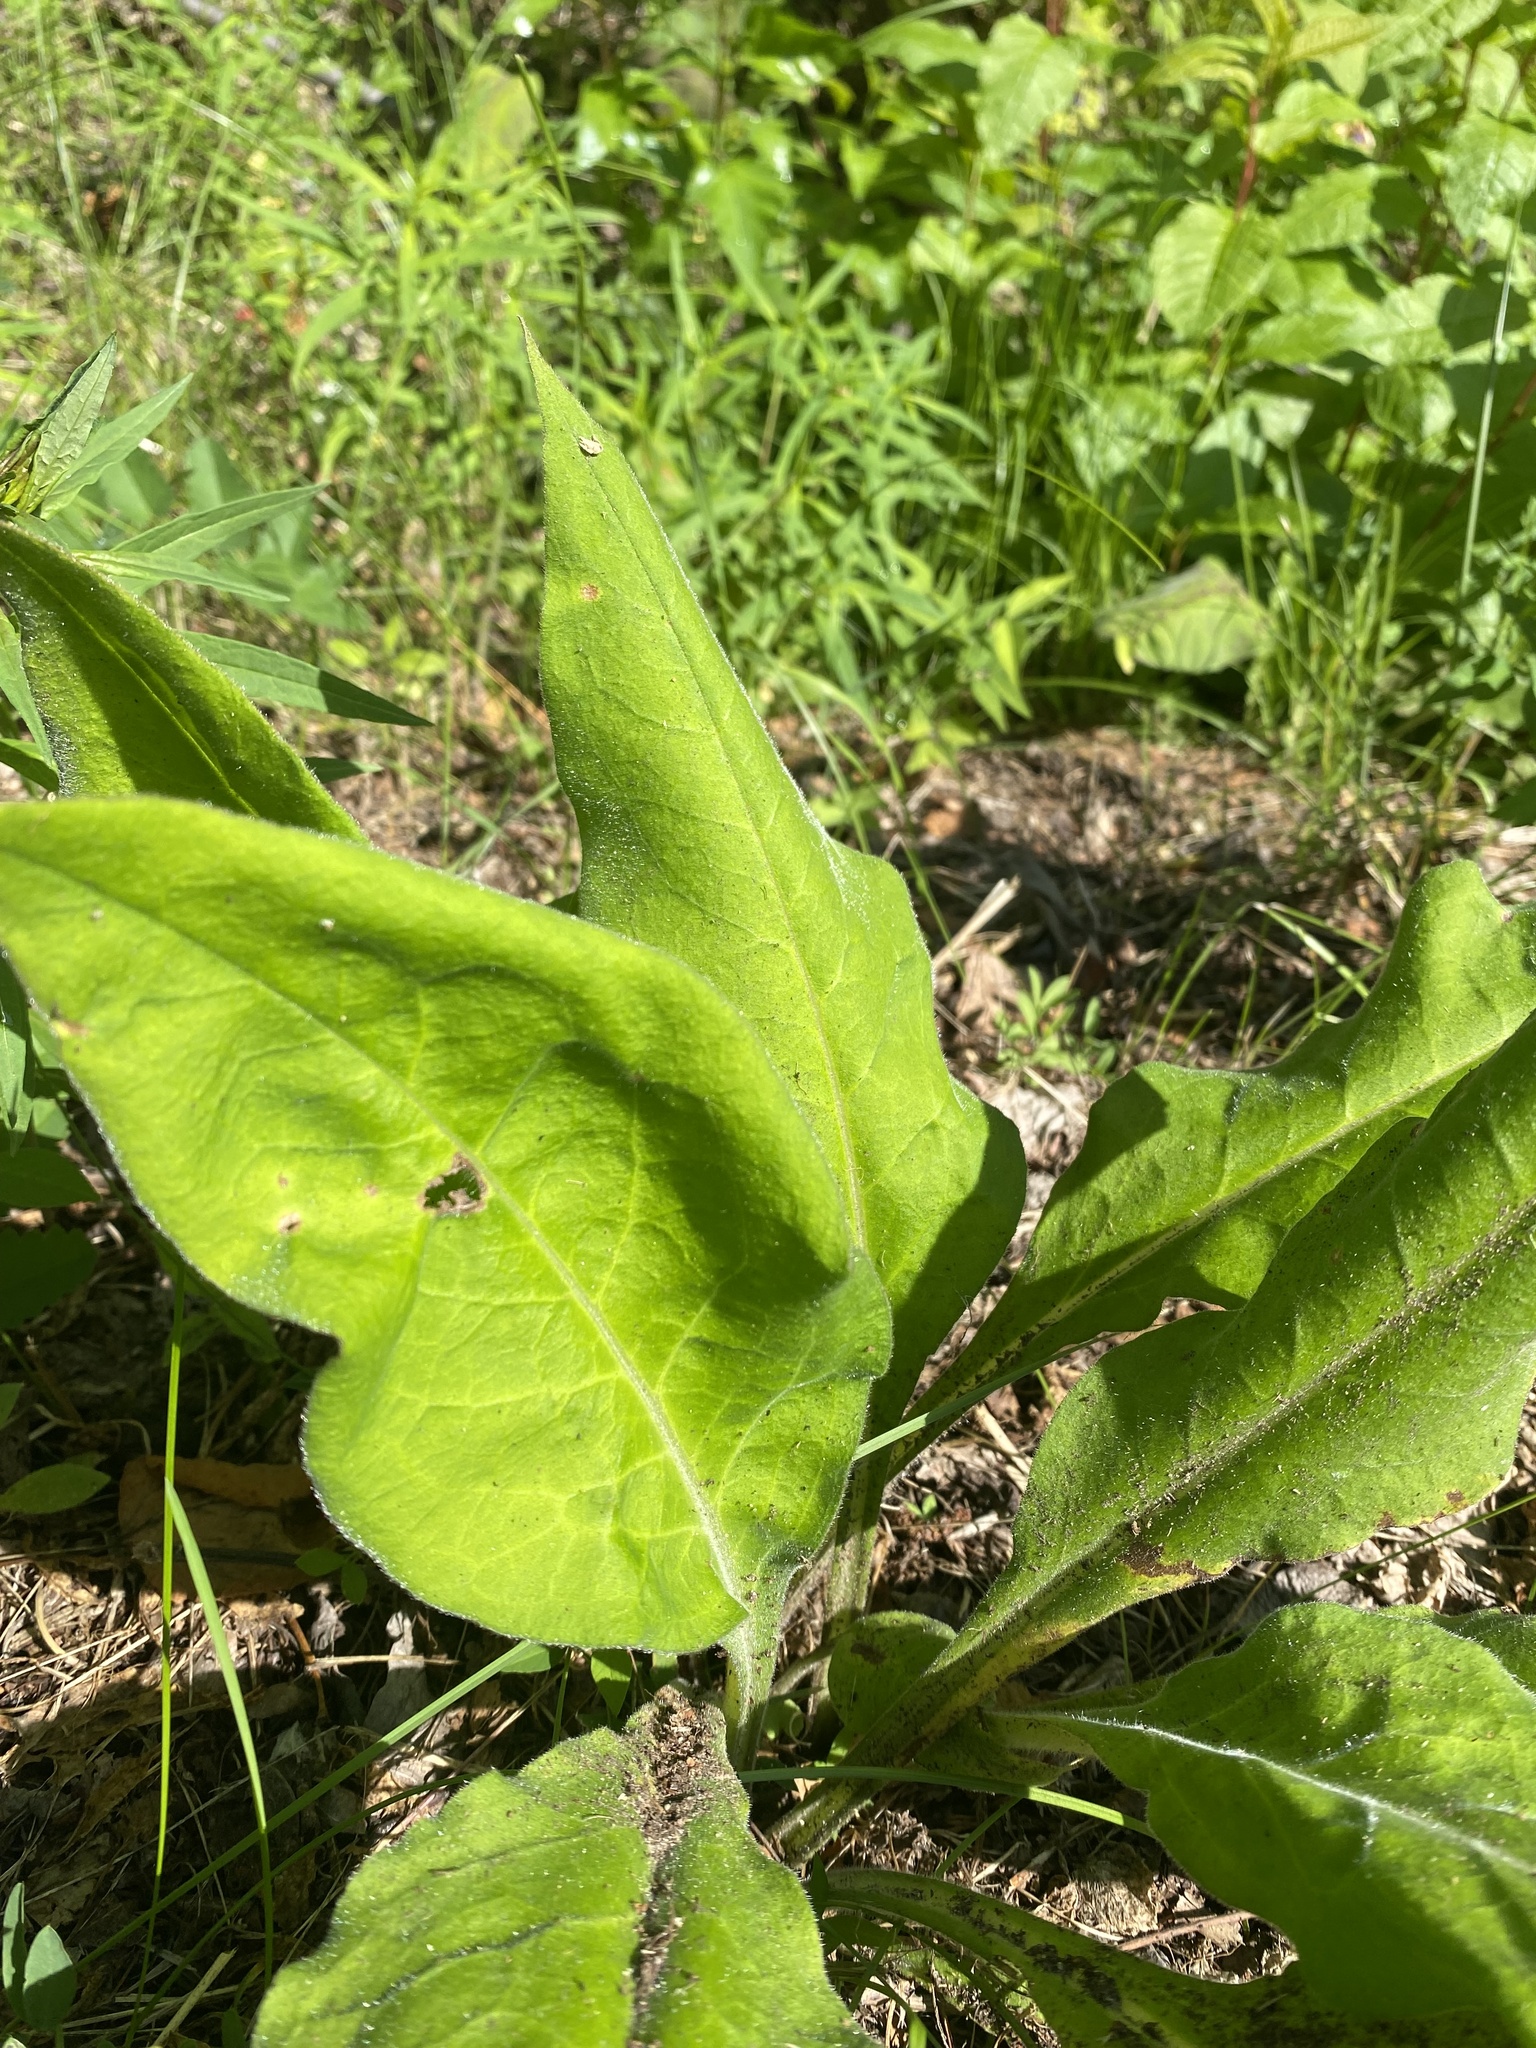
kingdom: Plantae
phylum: Tracheophyta
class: Magnoliopsida
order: Boraginales
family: Boraginaceae
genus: Pulmonaria
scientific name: Pulmonaria mollis
